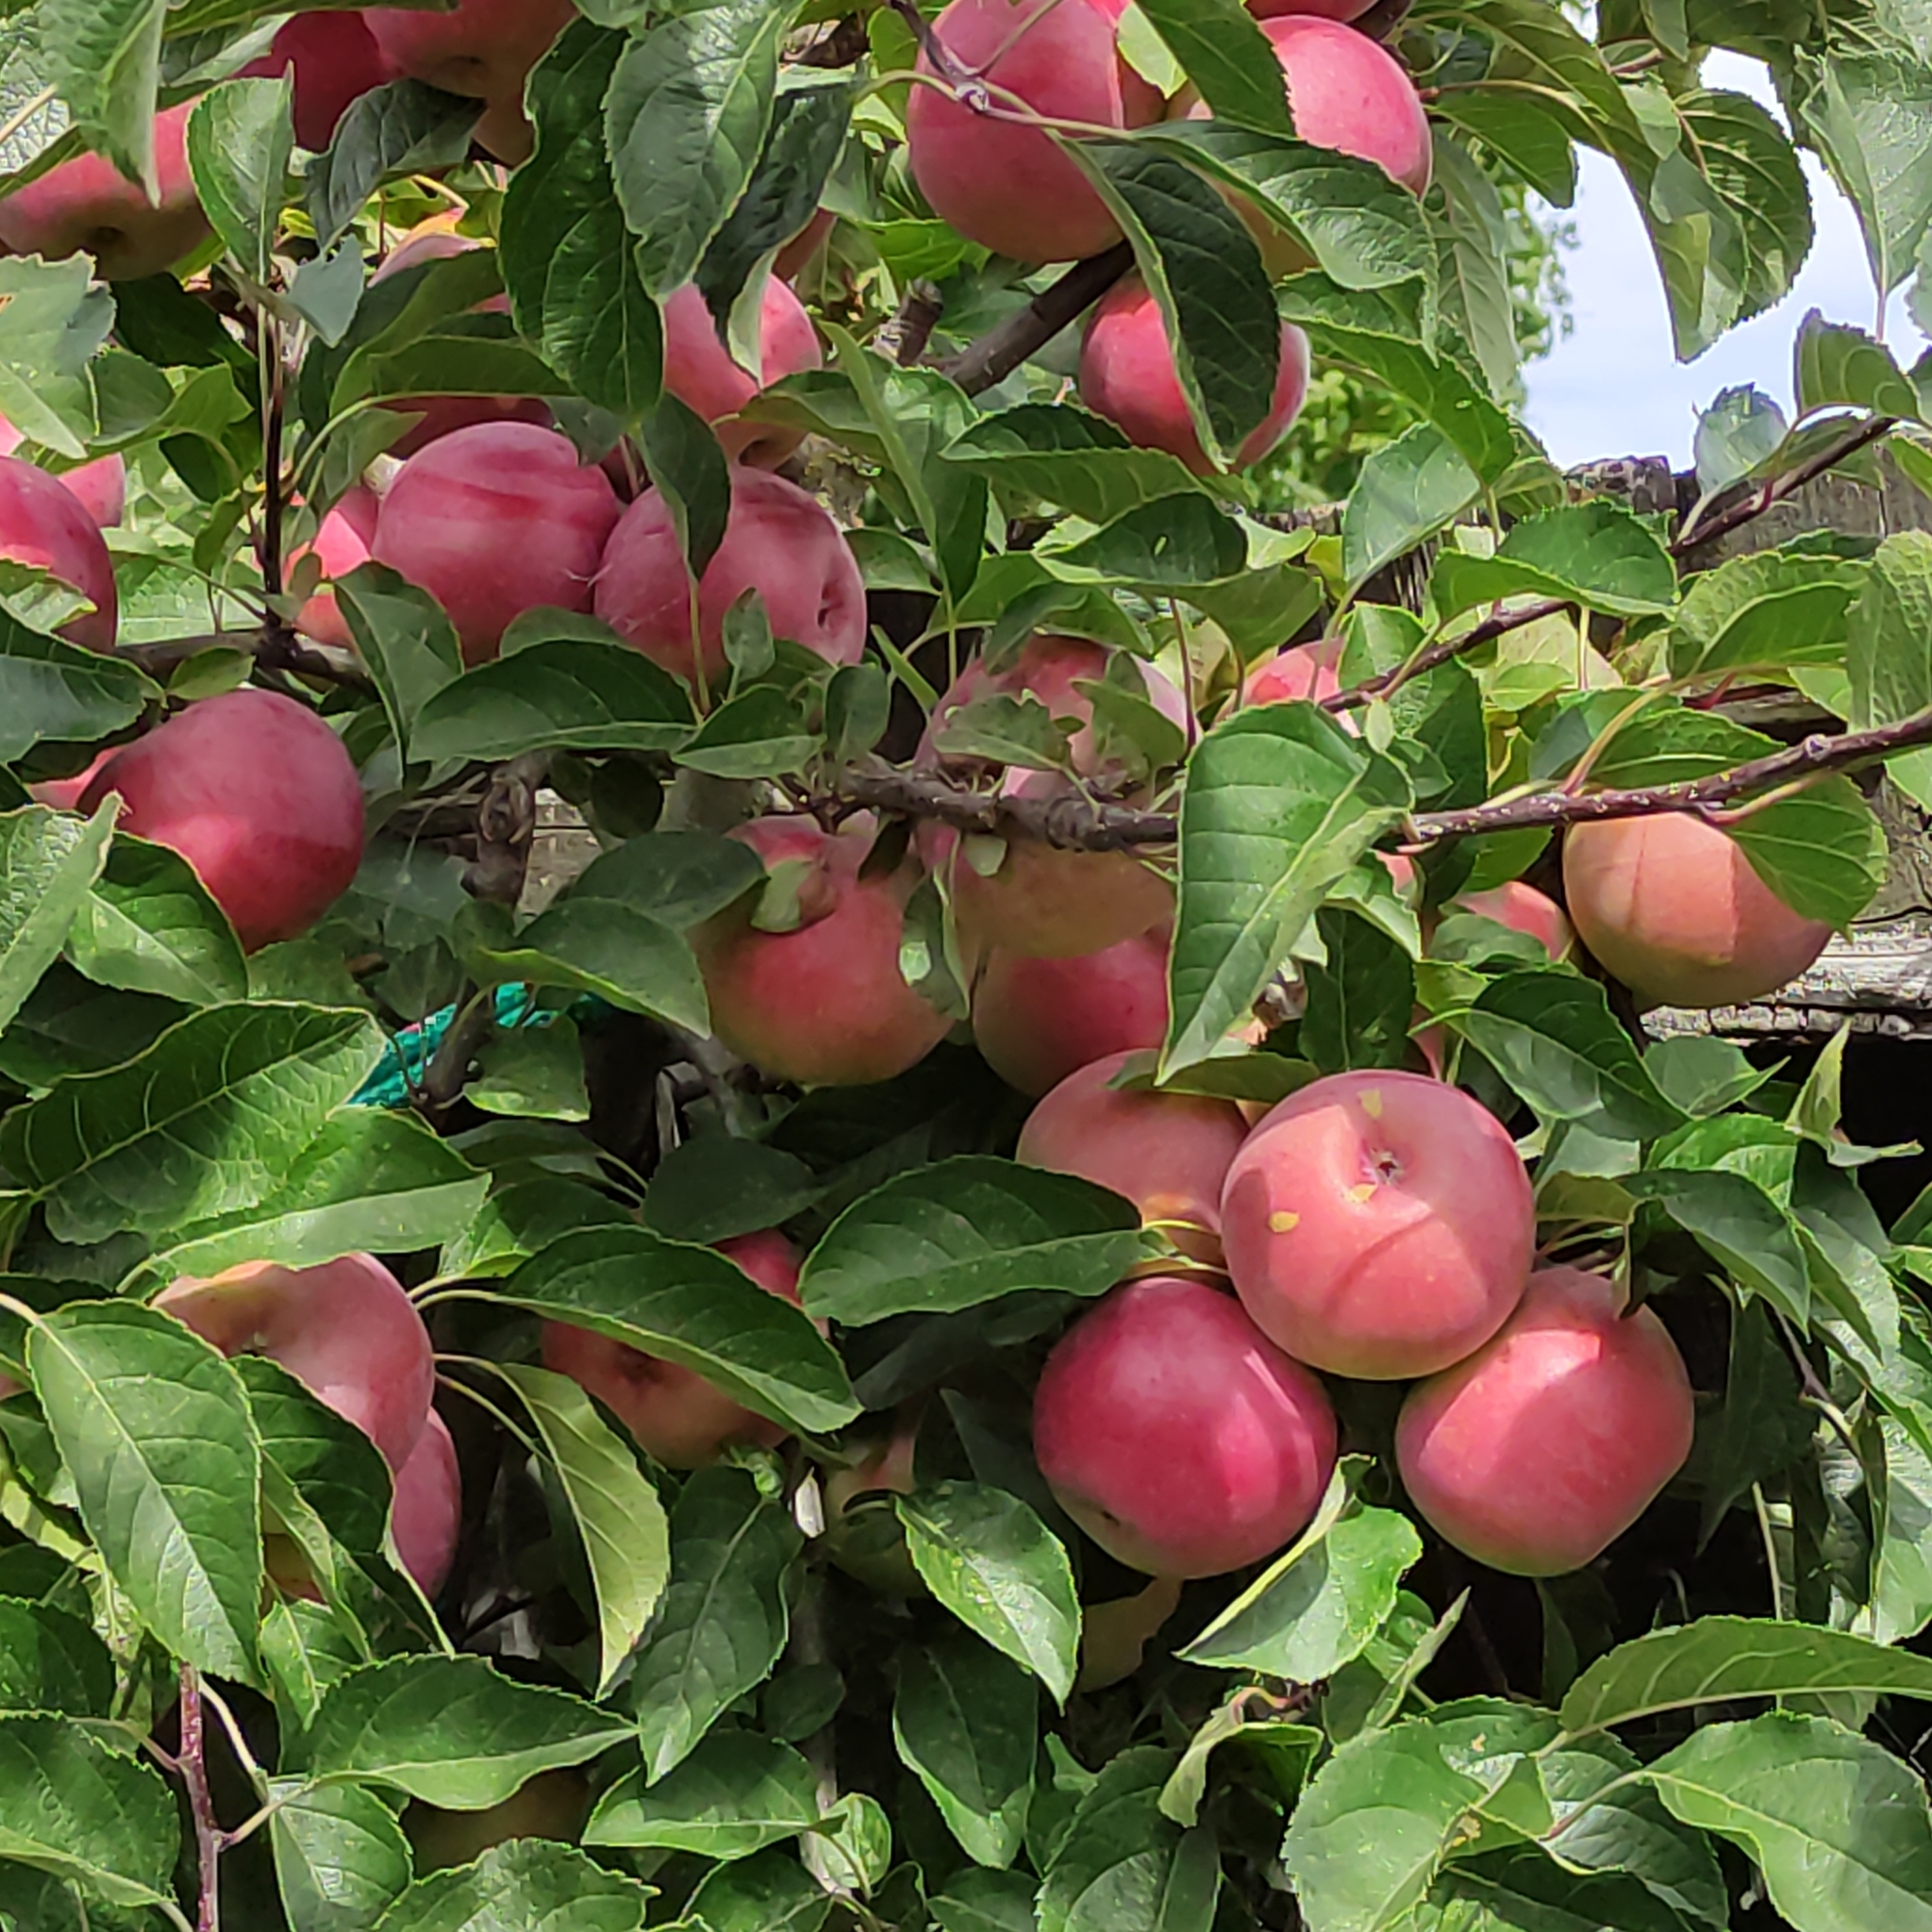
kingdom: Plantae
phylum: Tracheophyta
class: Magnoliopsida
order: Rosales
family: Rosaceae
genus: Malus
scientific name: Malus domestica
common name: Apple
